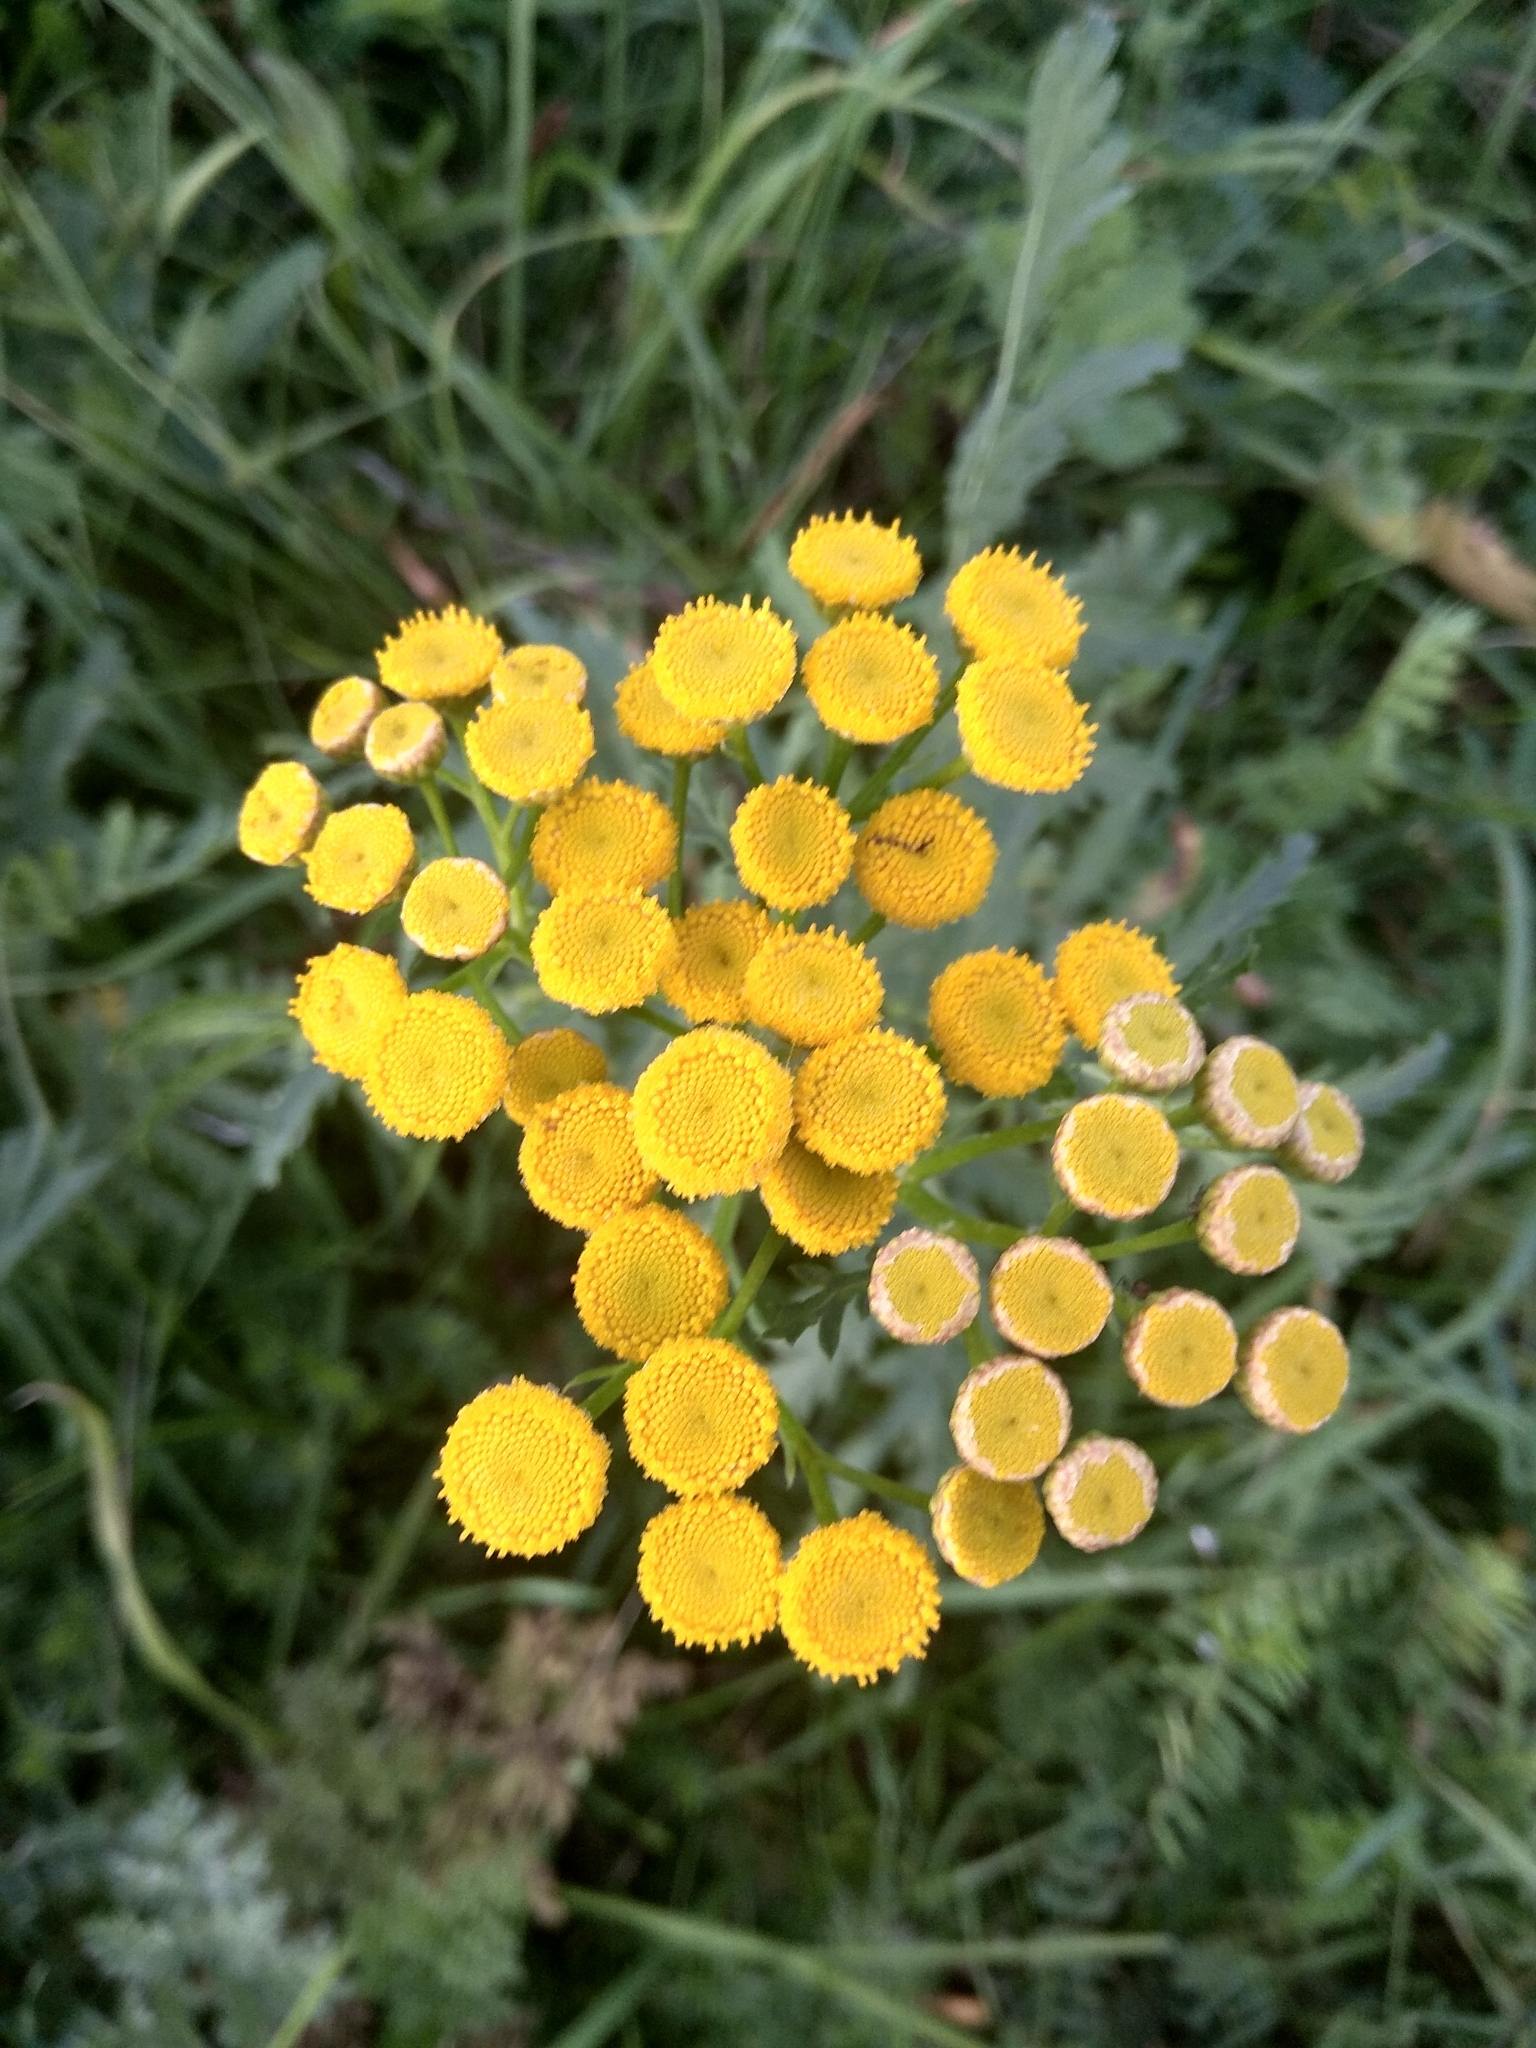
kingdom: Plantae
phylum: Tracheophyta
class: Magnoliopsida
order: Asterales
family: Asteraceae
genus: Tanacetum
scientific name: Tanacetum vulgare
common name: Common tansy
